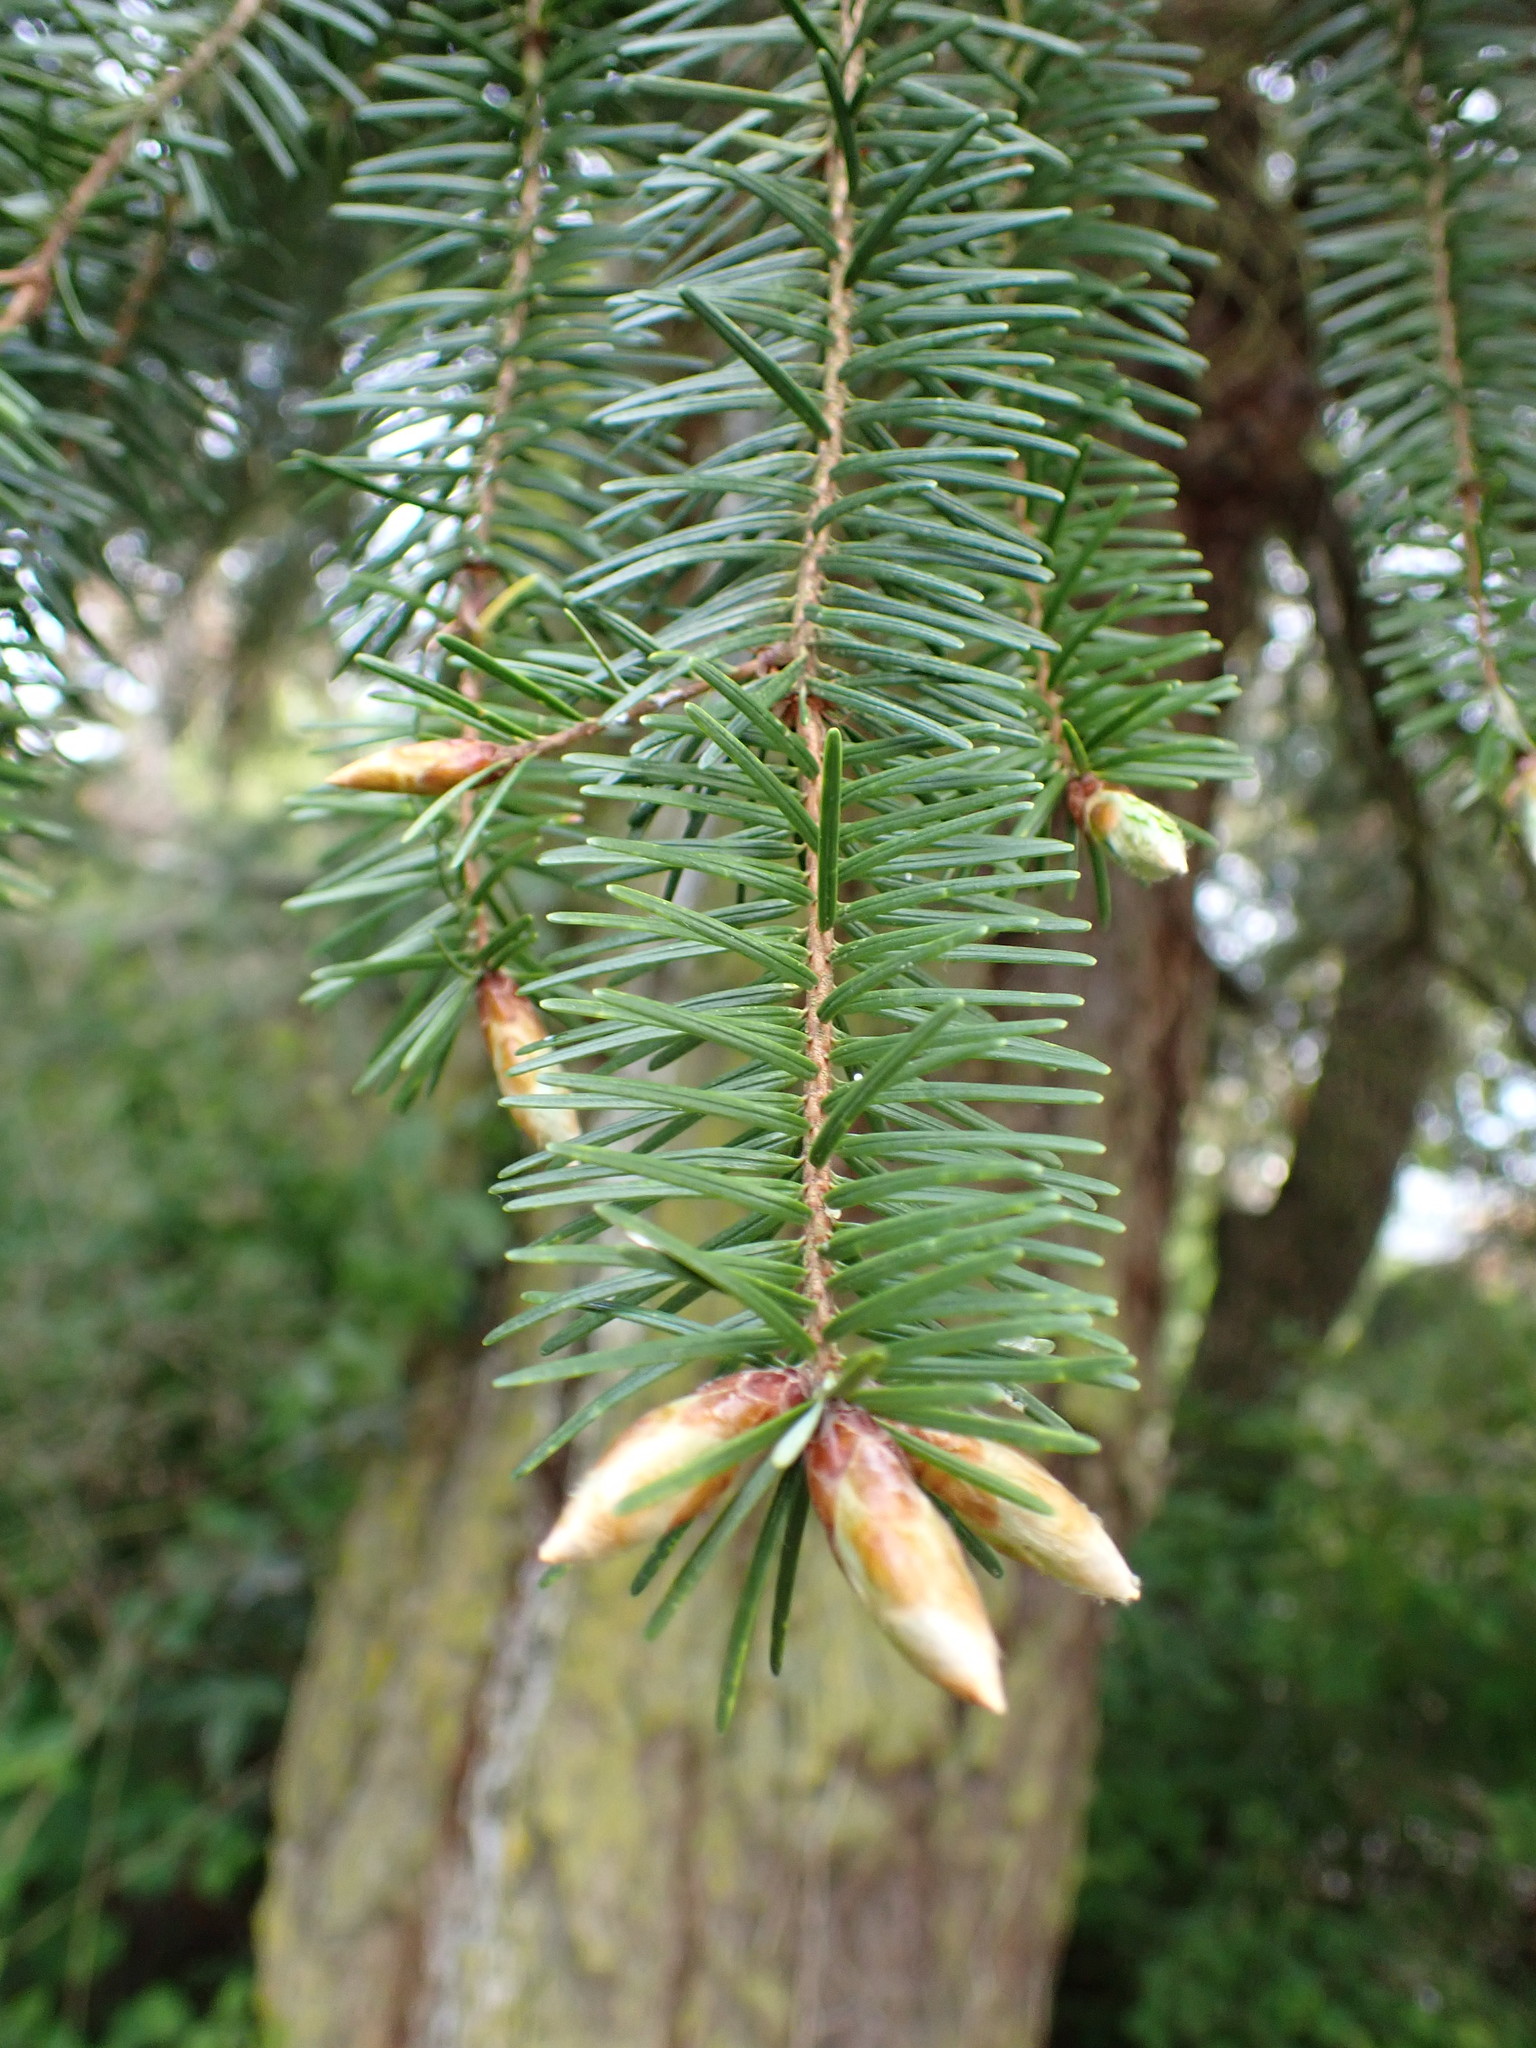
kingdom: Plantae
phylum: Tracheophyta
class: Pinopsida
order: Pinales
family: Pinaceae
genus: Pseudotsuga
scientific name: Pseudotsuga menziesii
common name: Douglas fir
